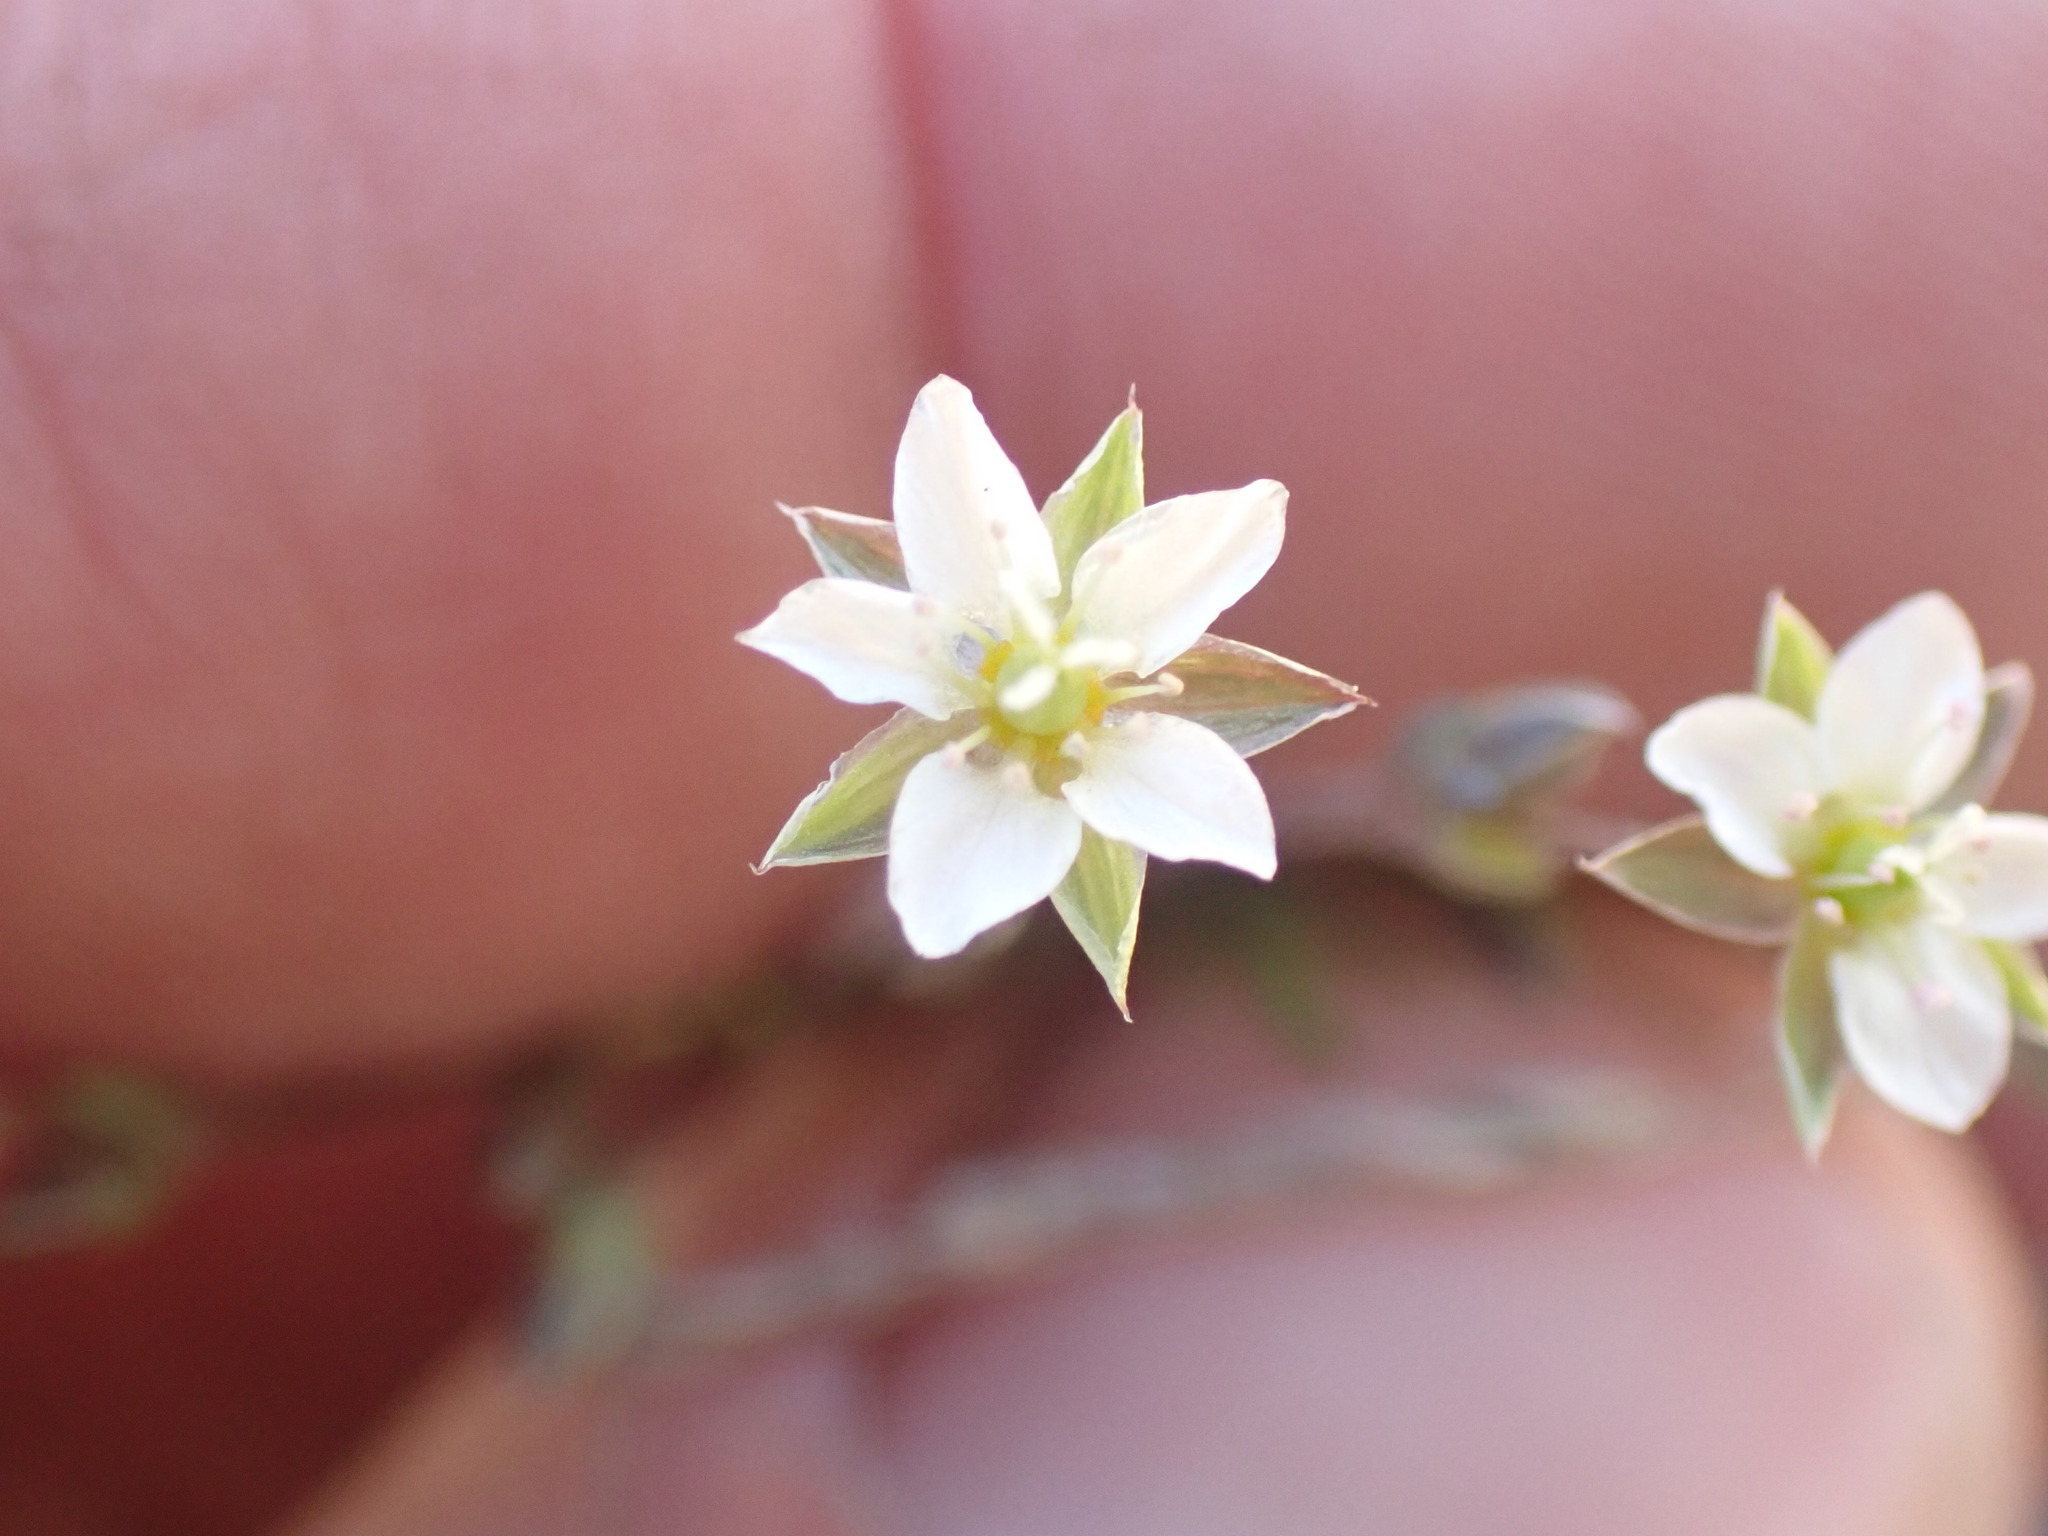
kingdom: Plantae
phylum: Tracheophyta
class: Magnoliopsida
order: Caryophyllales
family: Caryophyllaceae
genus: Arenaria
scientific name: Arenaria serpyllifolia
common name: Thyme-leaved sandwort
